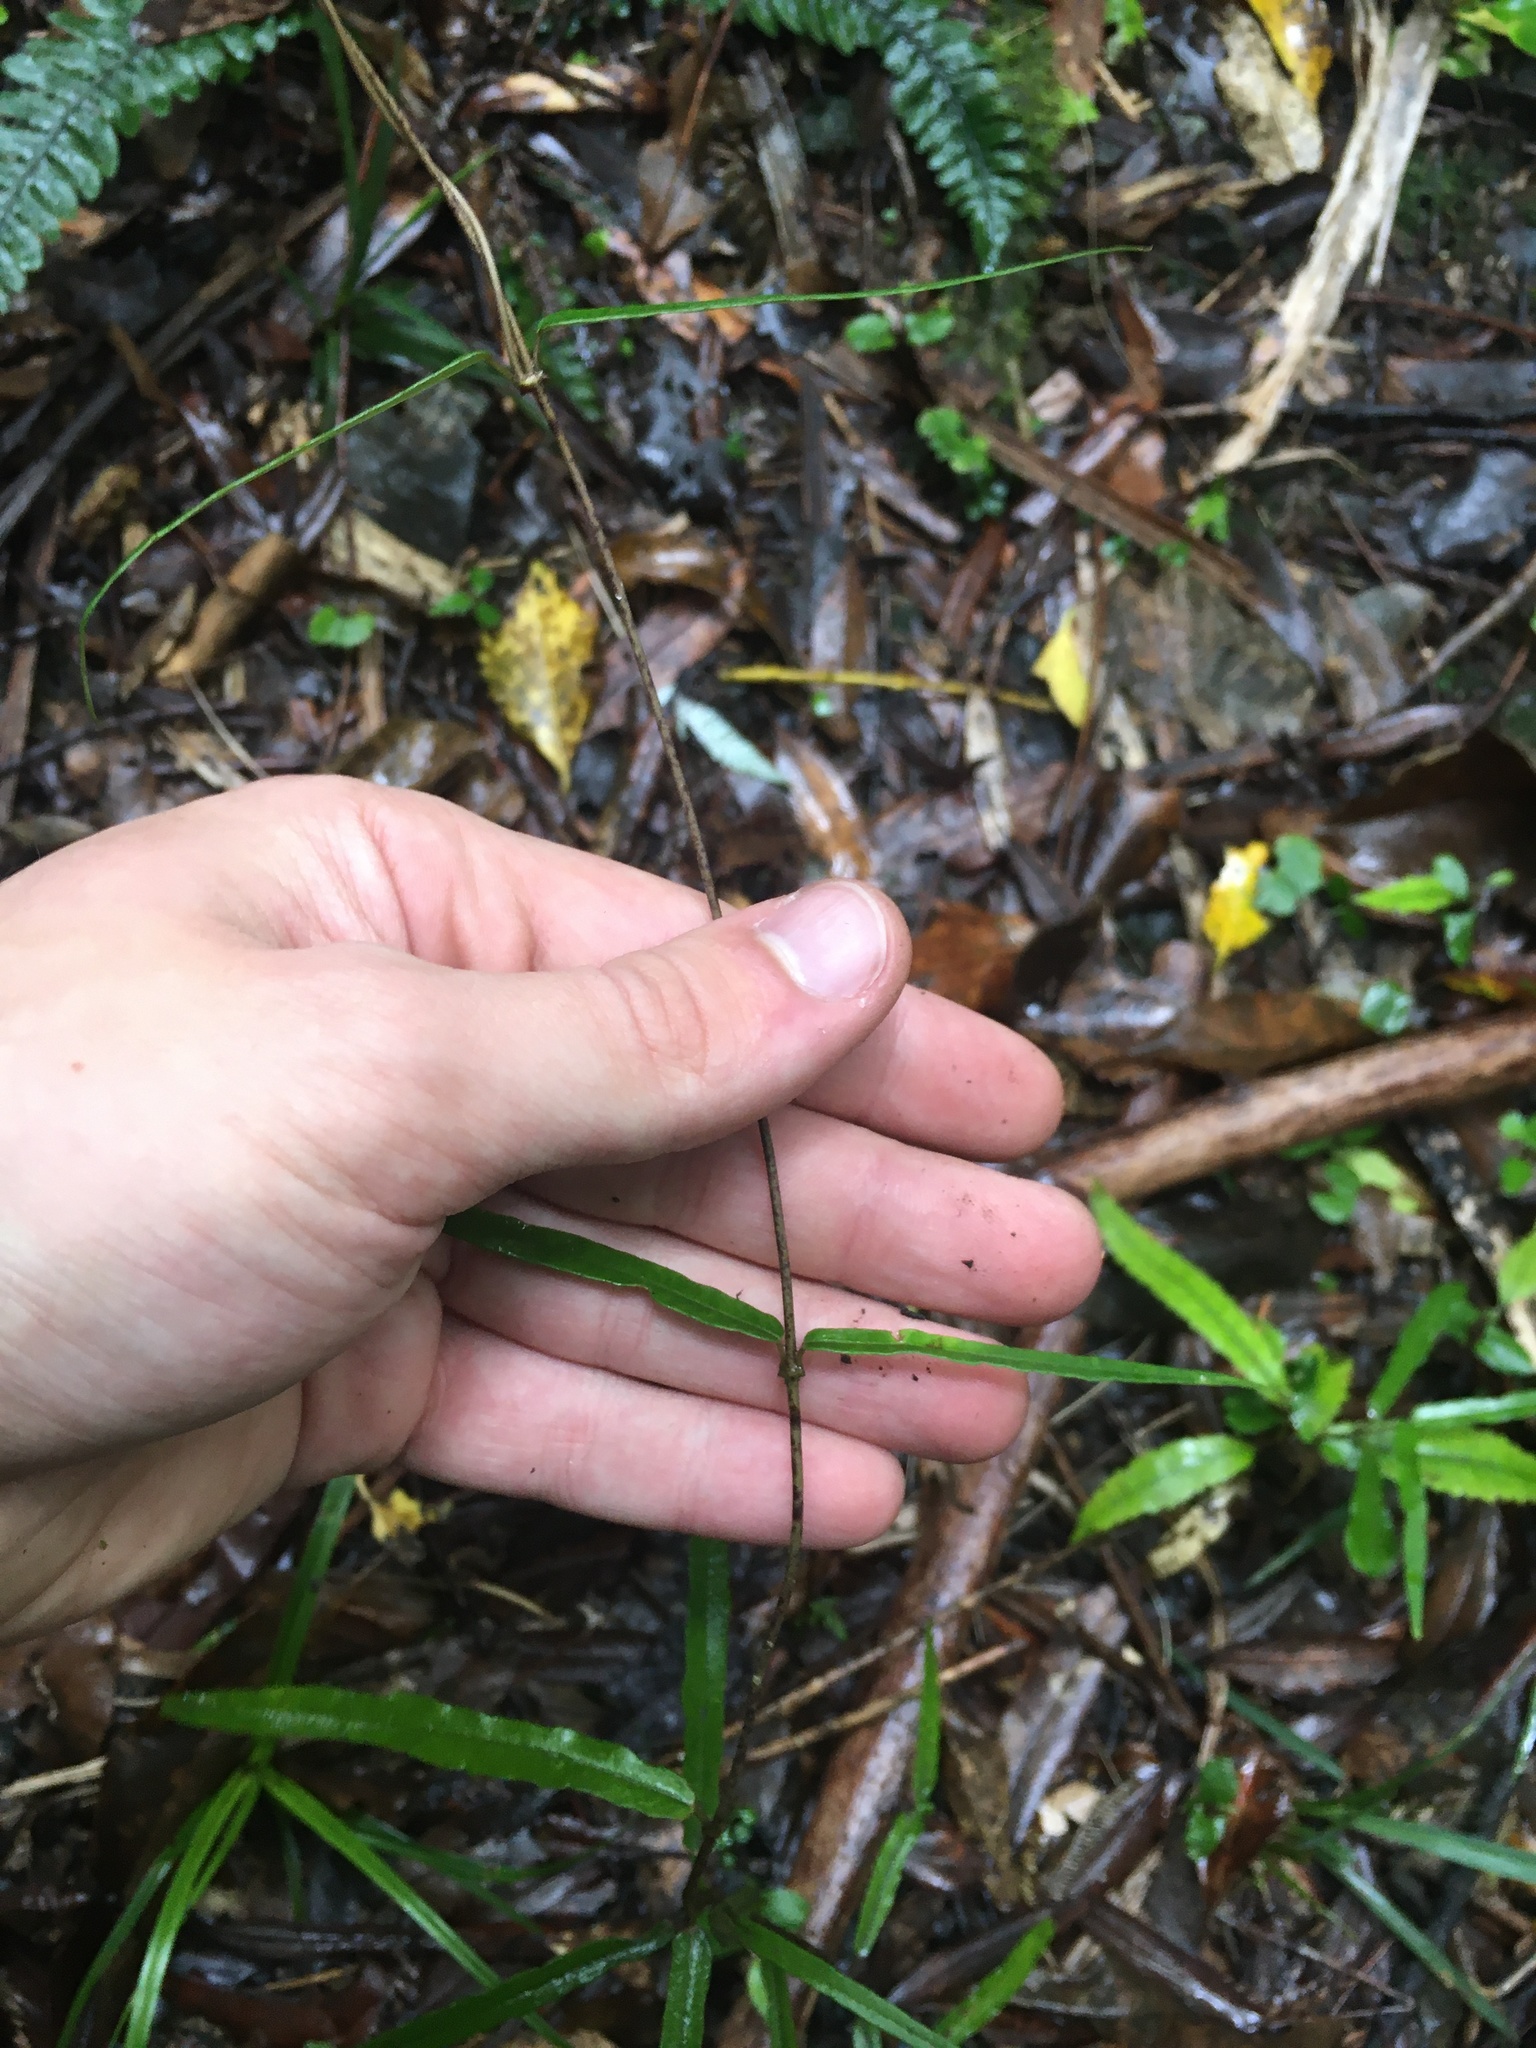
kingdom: Plantae
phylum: Tracheophyta
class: Magnoliopsida
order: Gentianales
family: Apocynaceae
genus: Parsonsia
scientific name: Parsonsia heterophylla
